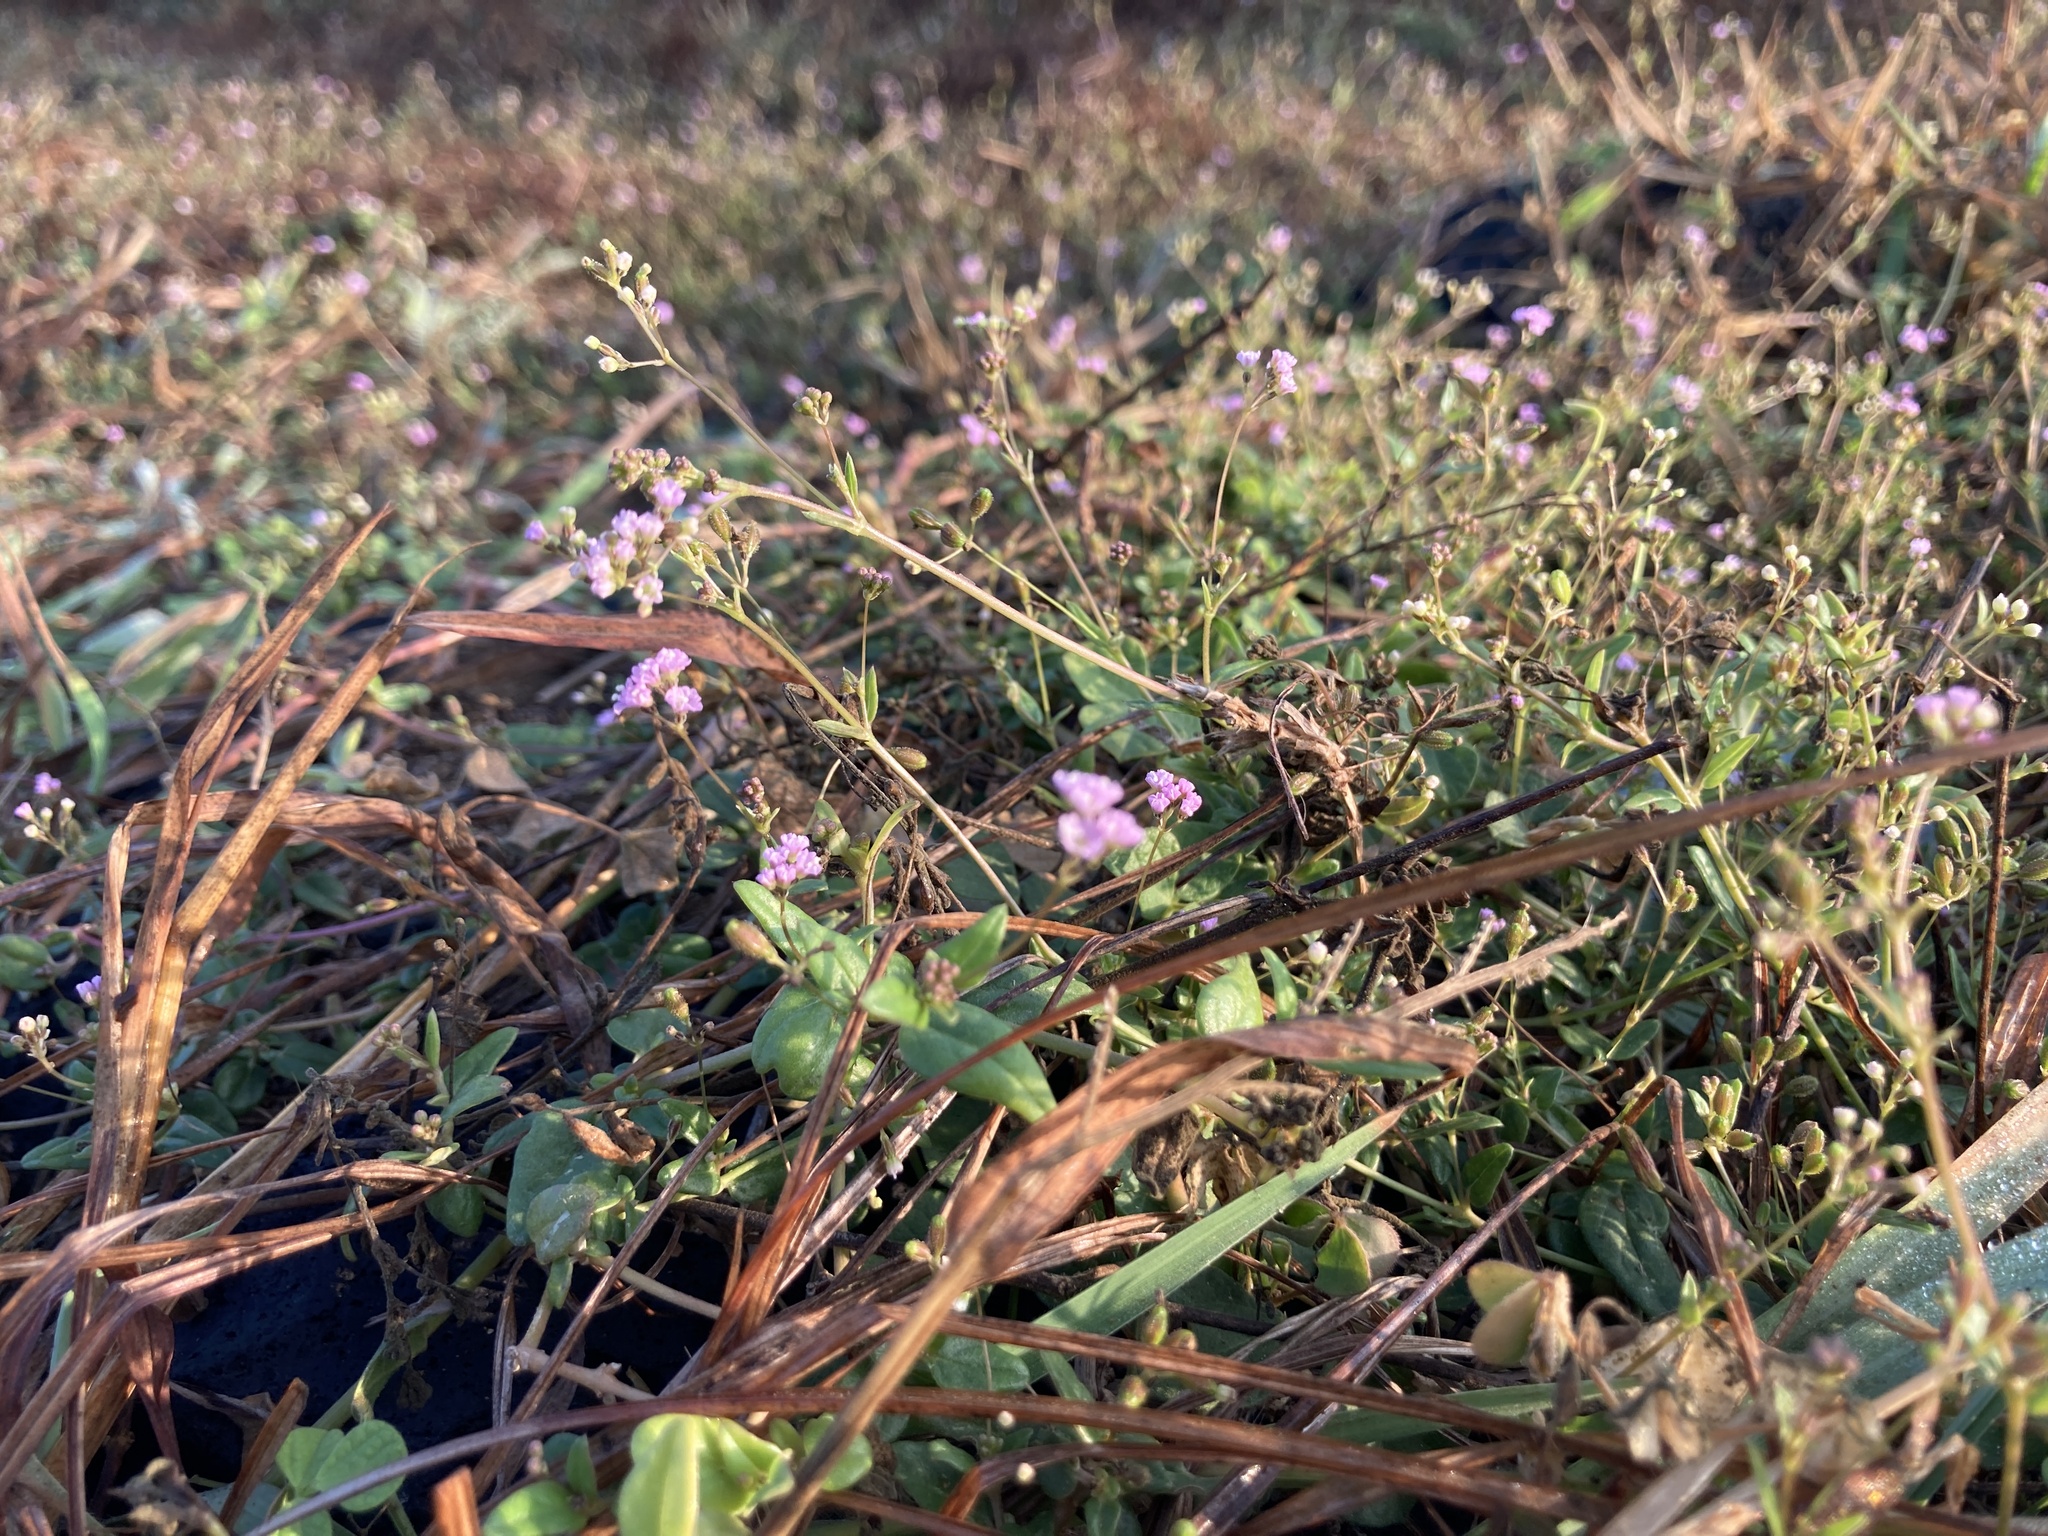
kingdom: Plantae
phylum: Tracheophyta
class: Magnoliopsida
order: Caryophyllales
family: Nyctaginaceae
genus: Boerhavia
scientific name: Boerhavia diffusa
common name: Red spiderling
